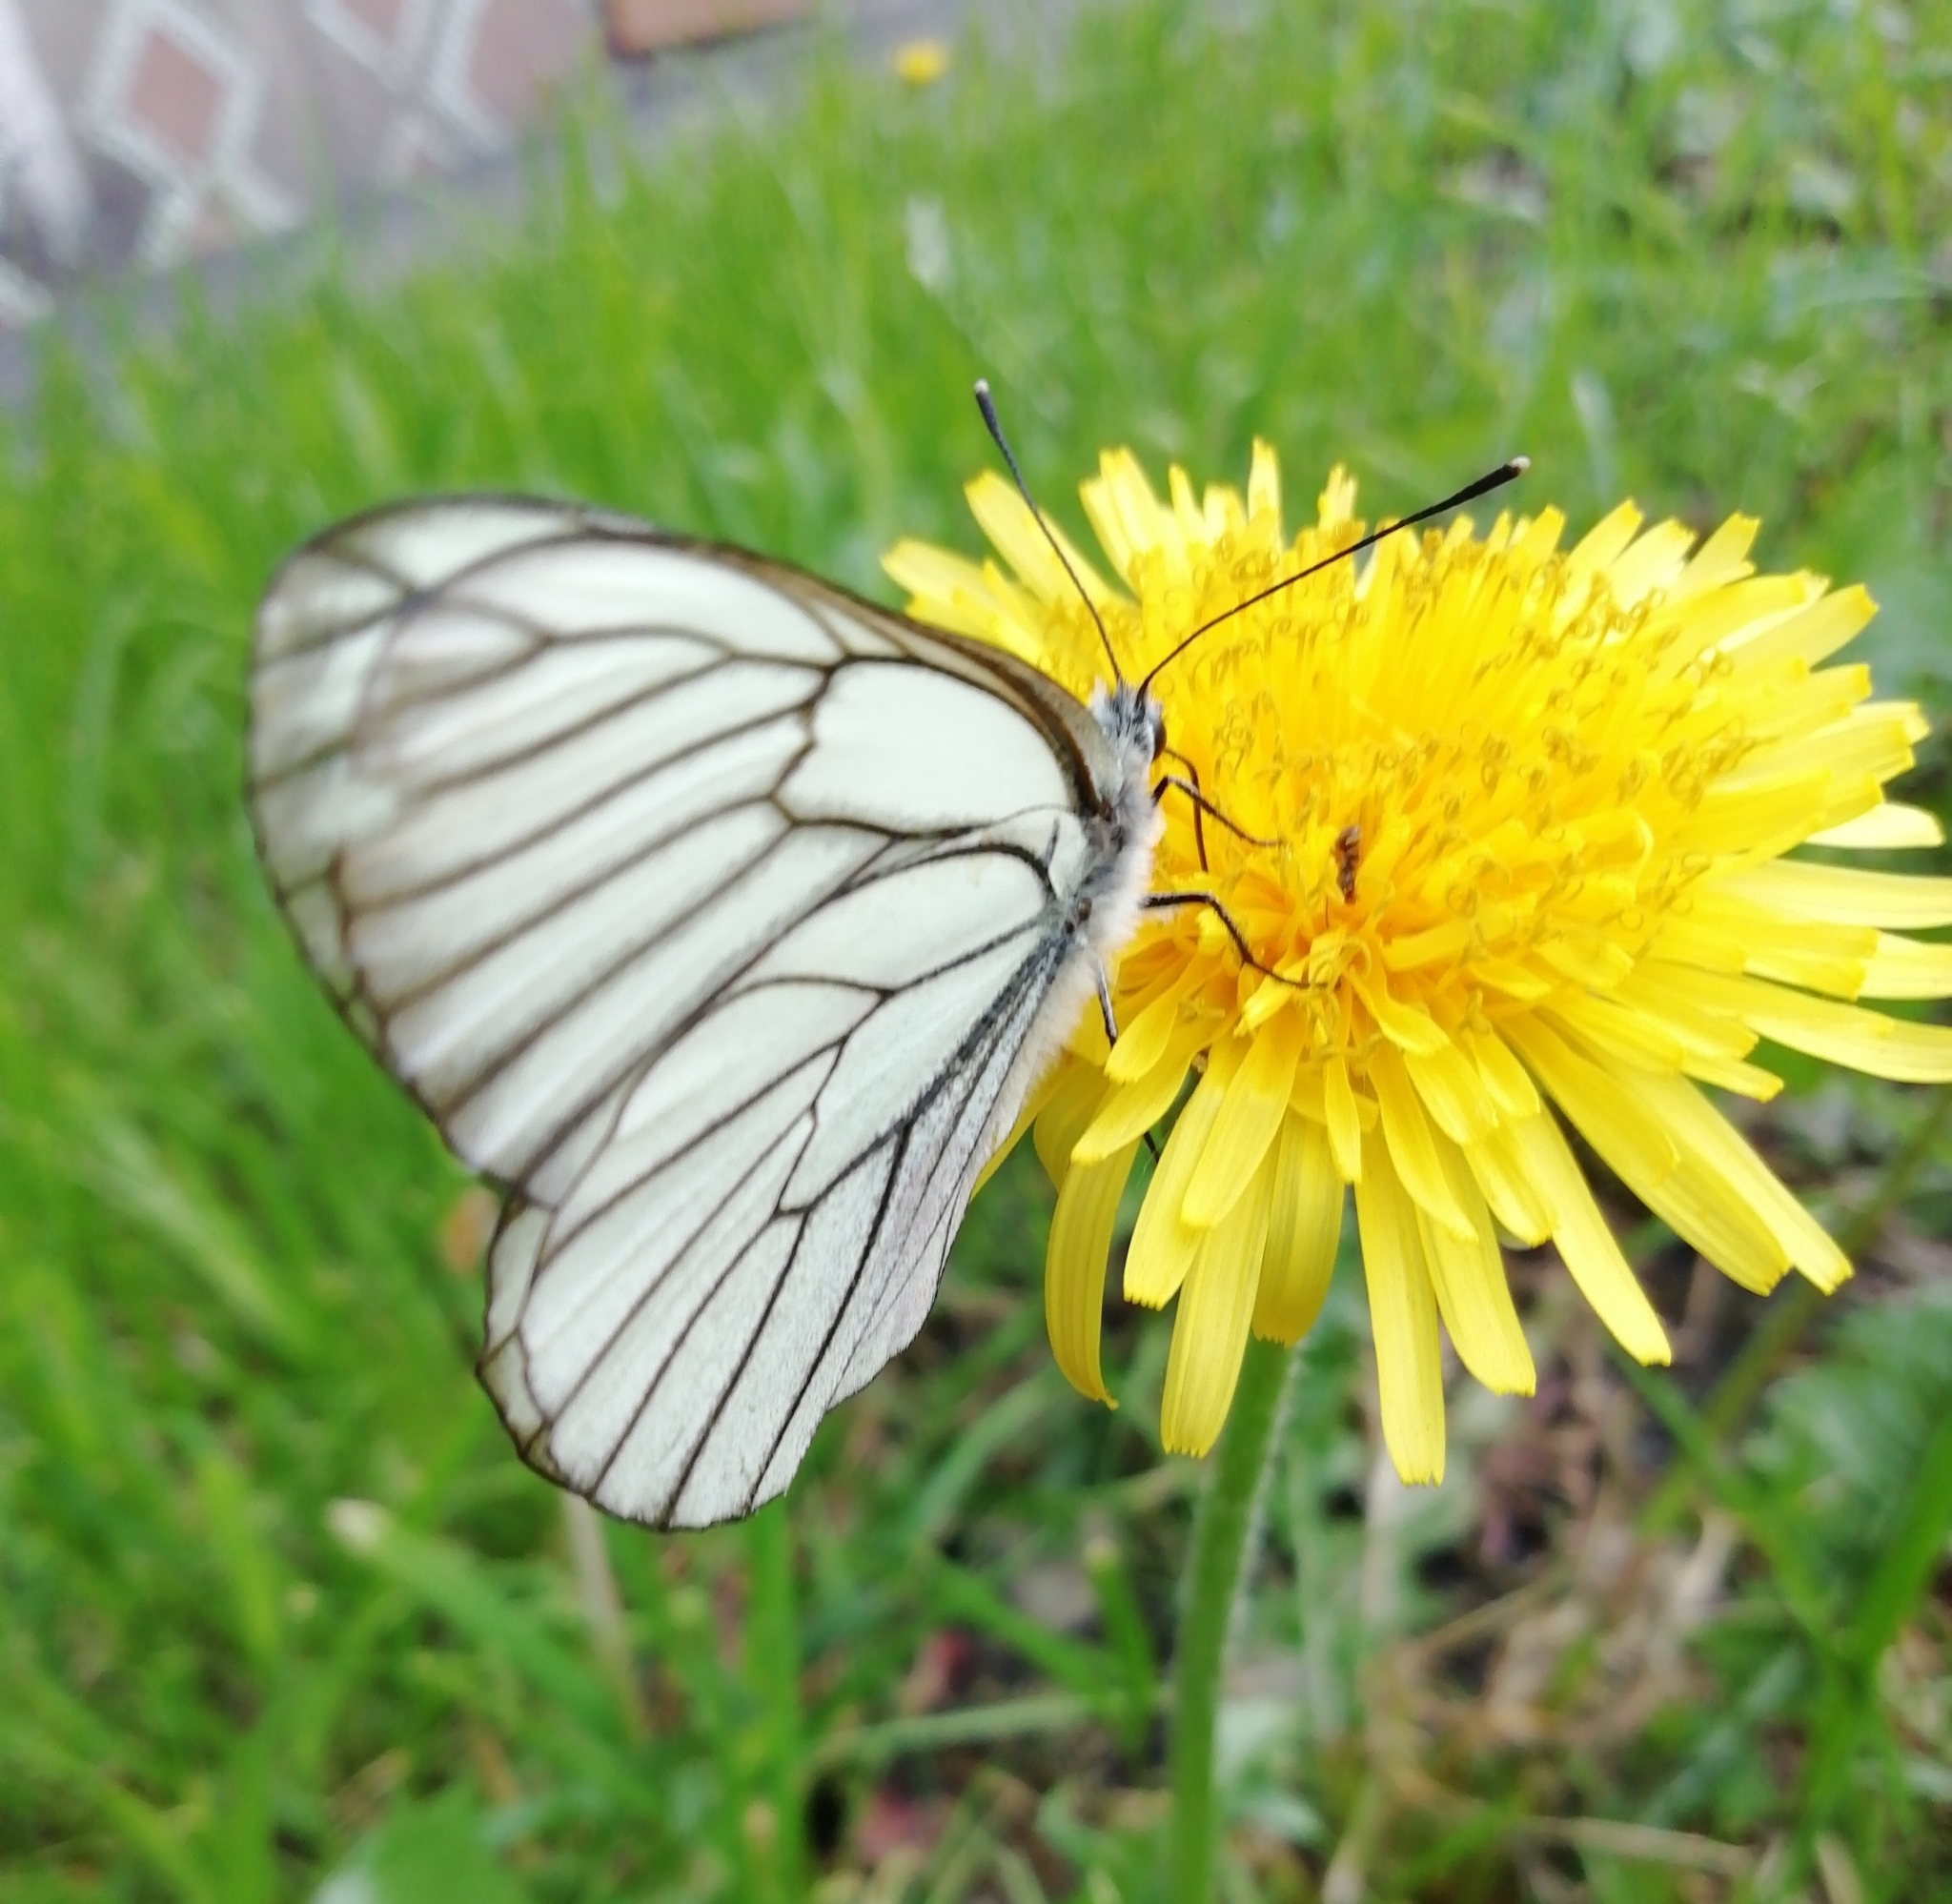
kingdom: Animalia
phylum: Arthropoda
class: Insecta
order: Lepidoptera
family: Pieridae
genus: Aporia
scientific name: Aporia crataegi
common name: Black-veined white
